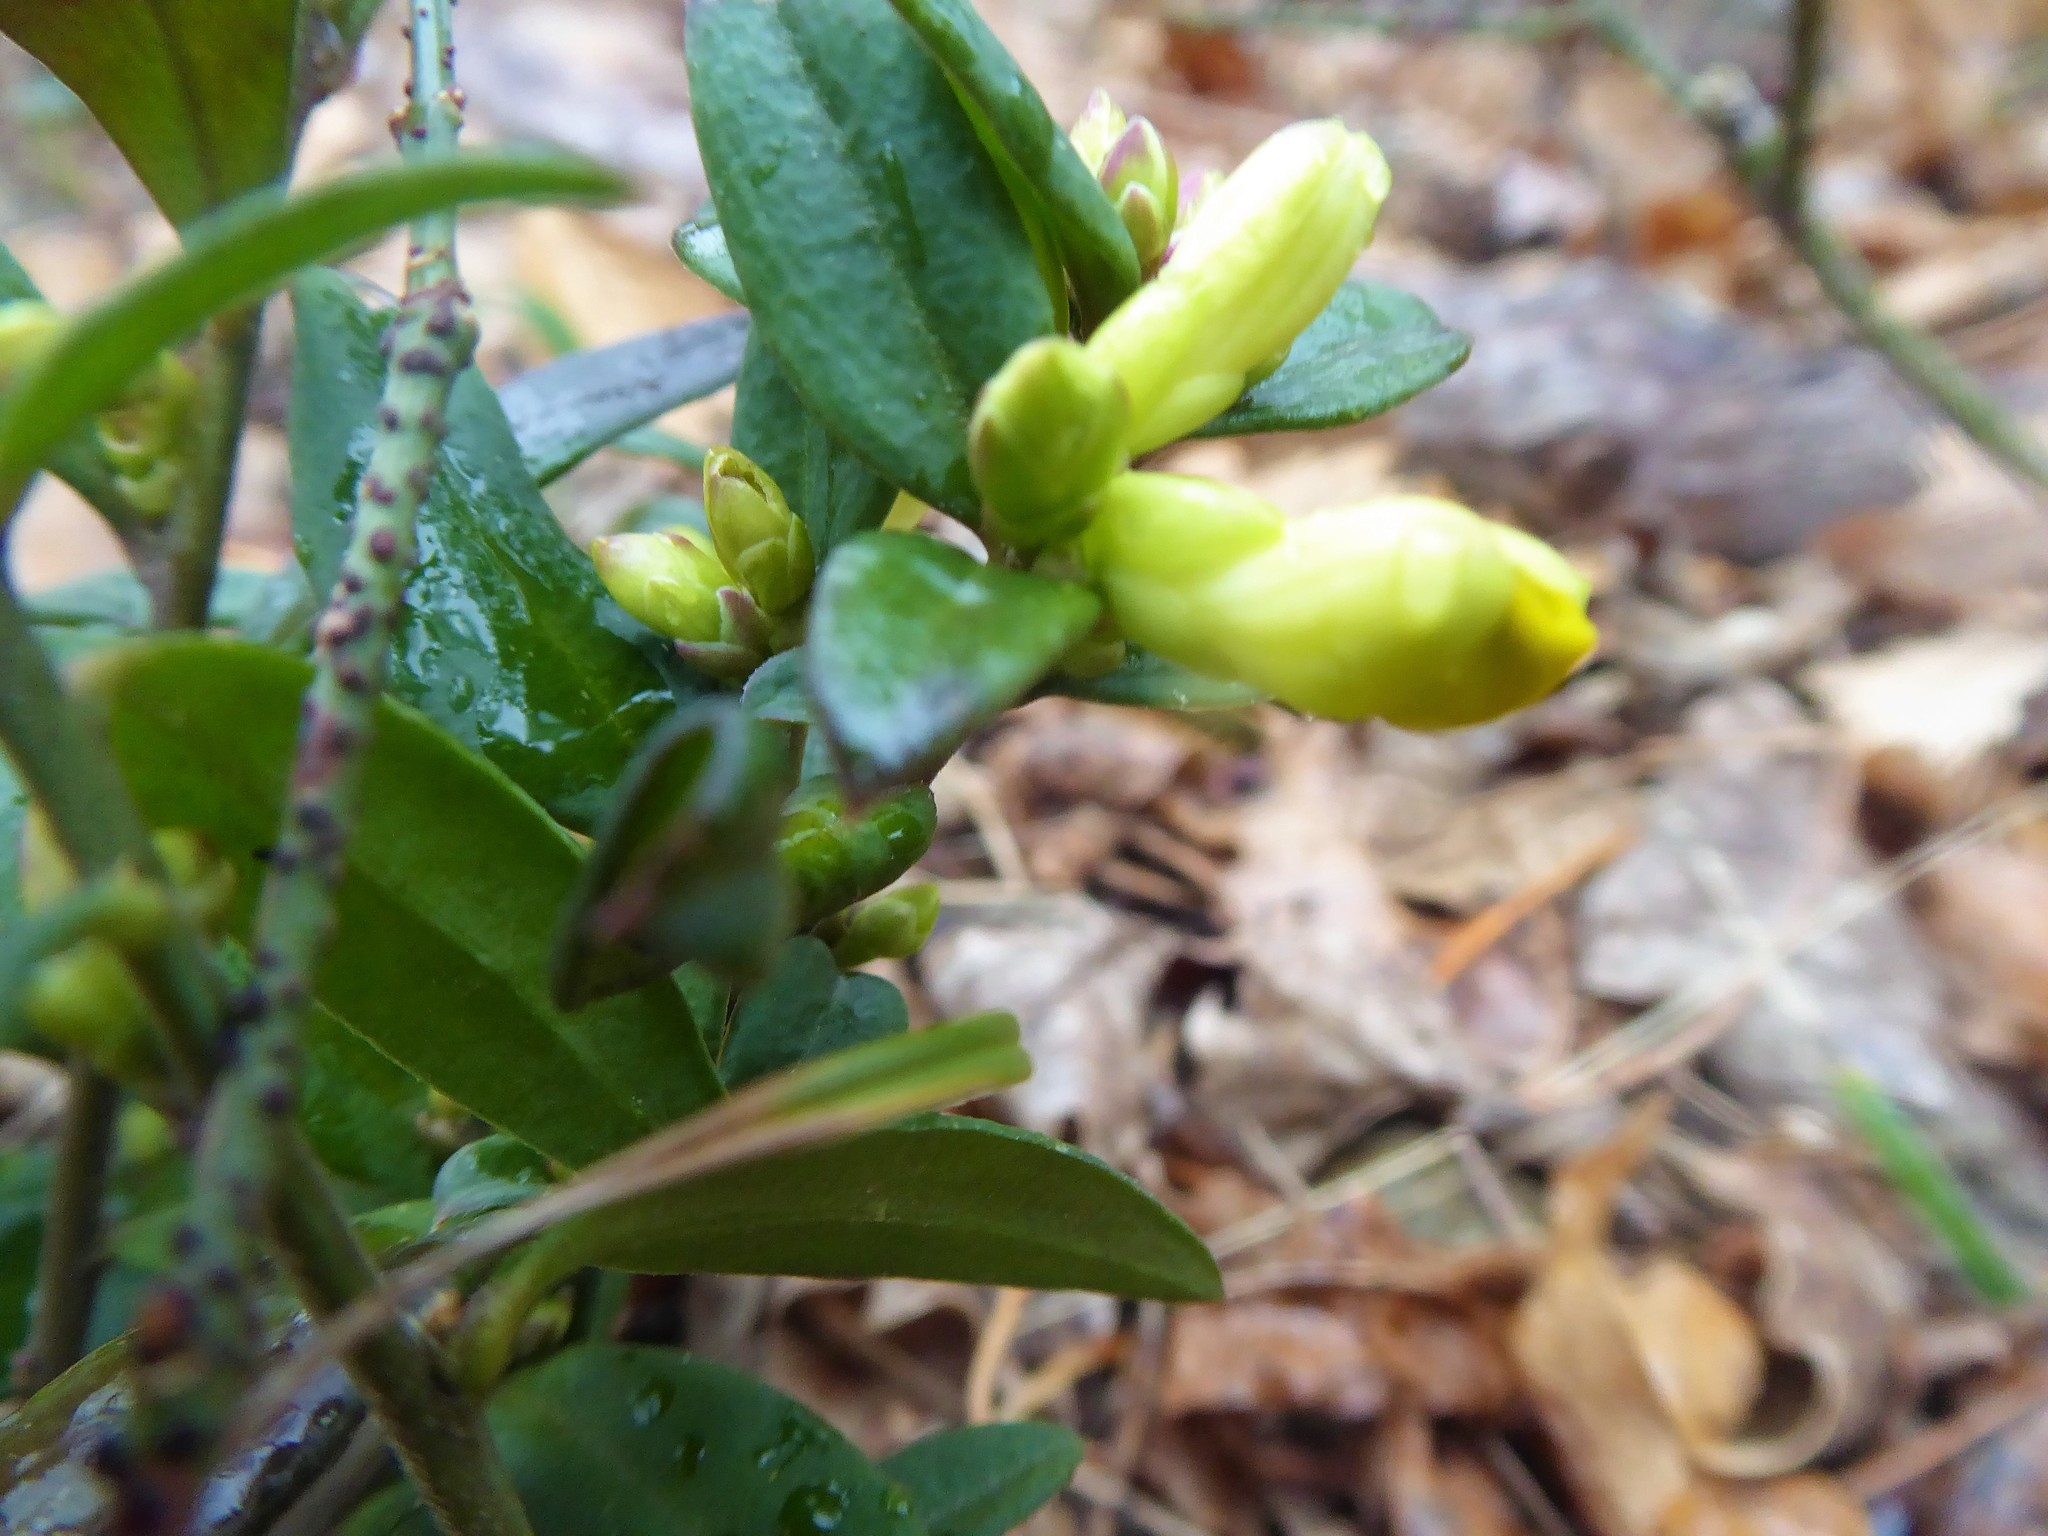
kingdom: Plantae
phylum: Tracheophyta
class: Magnoliopsida
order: Fabales
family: Polygalaceae
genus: Polygaloides
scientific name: Polygaloides chamaebuxus
